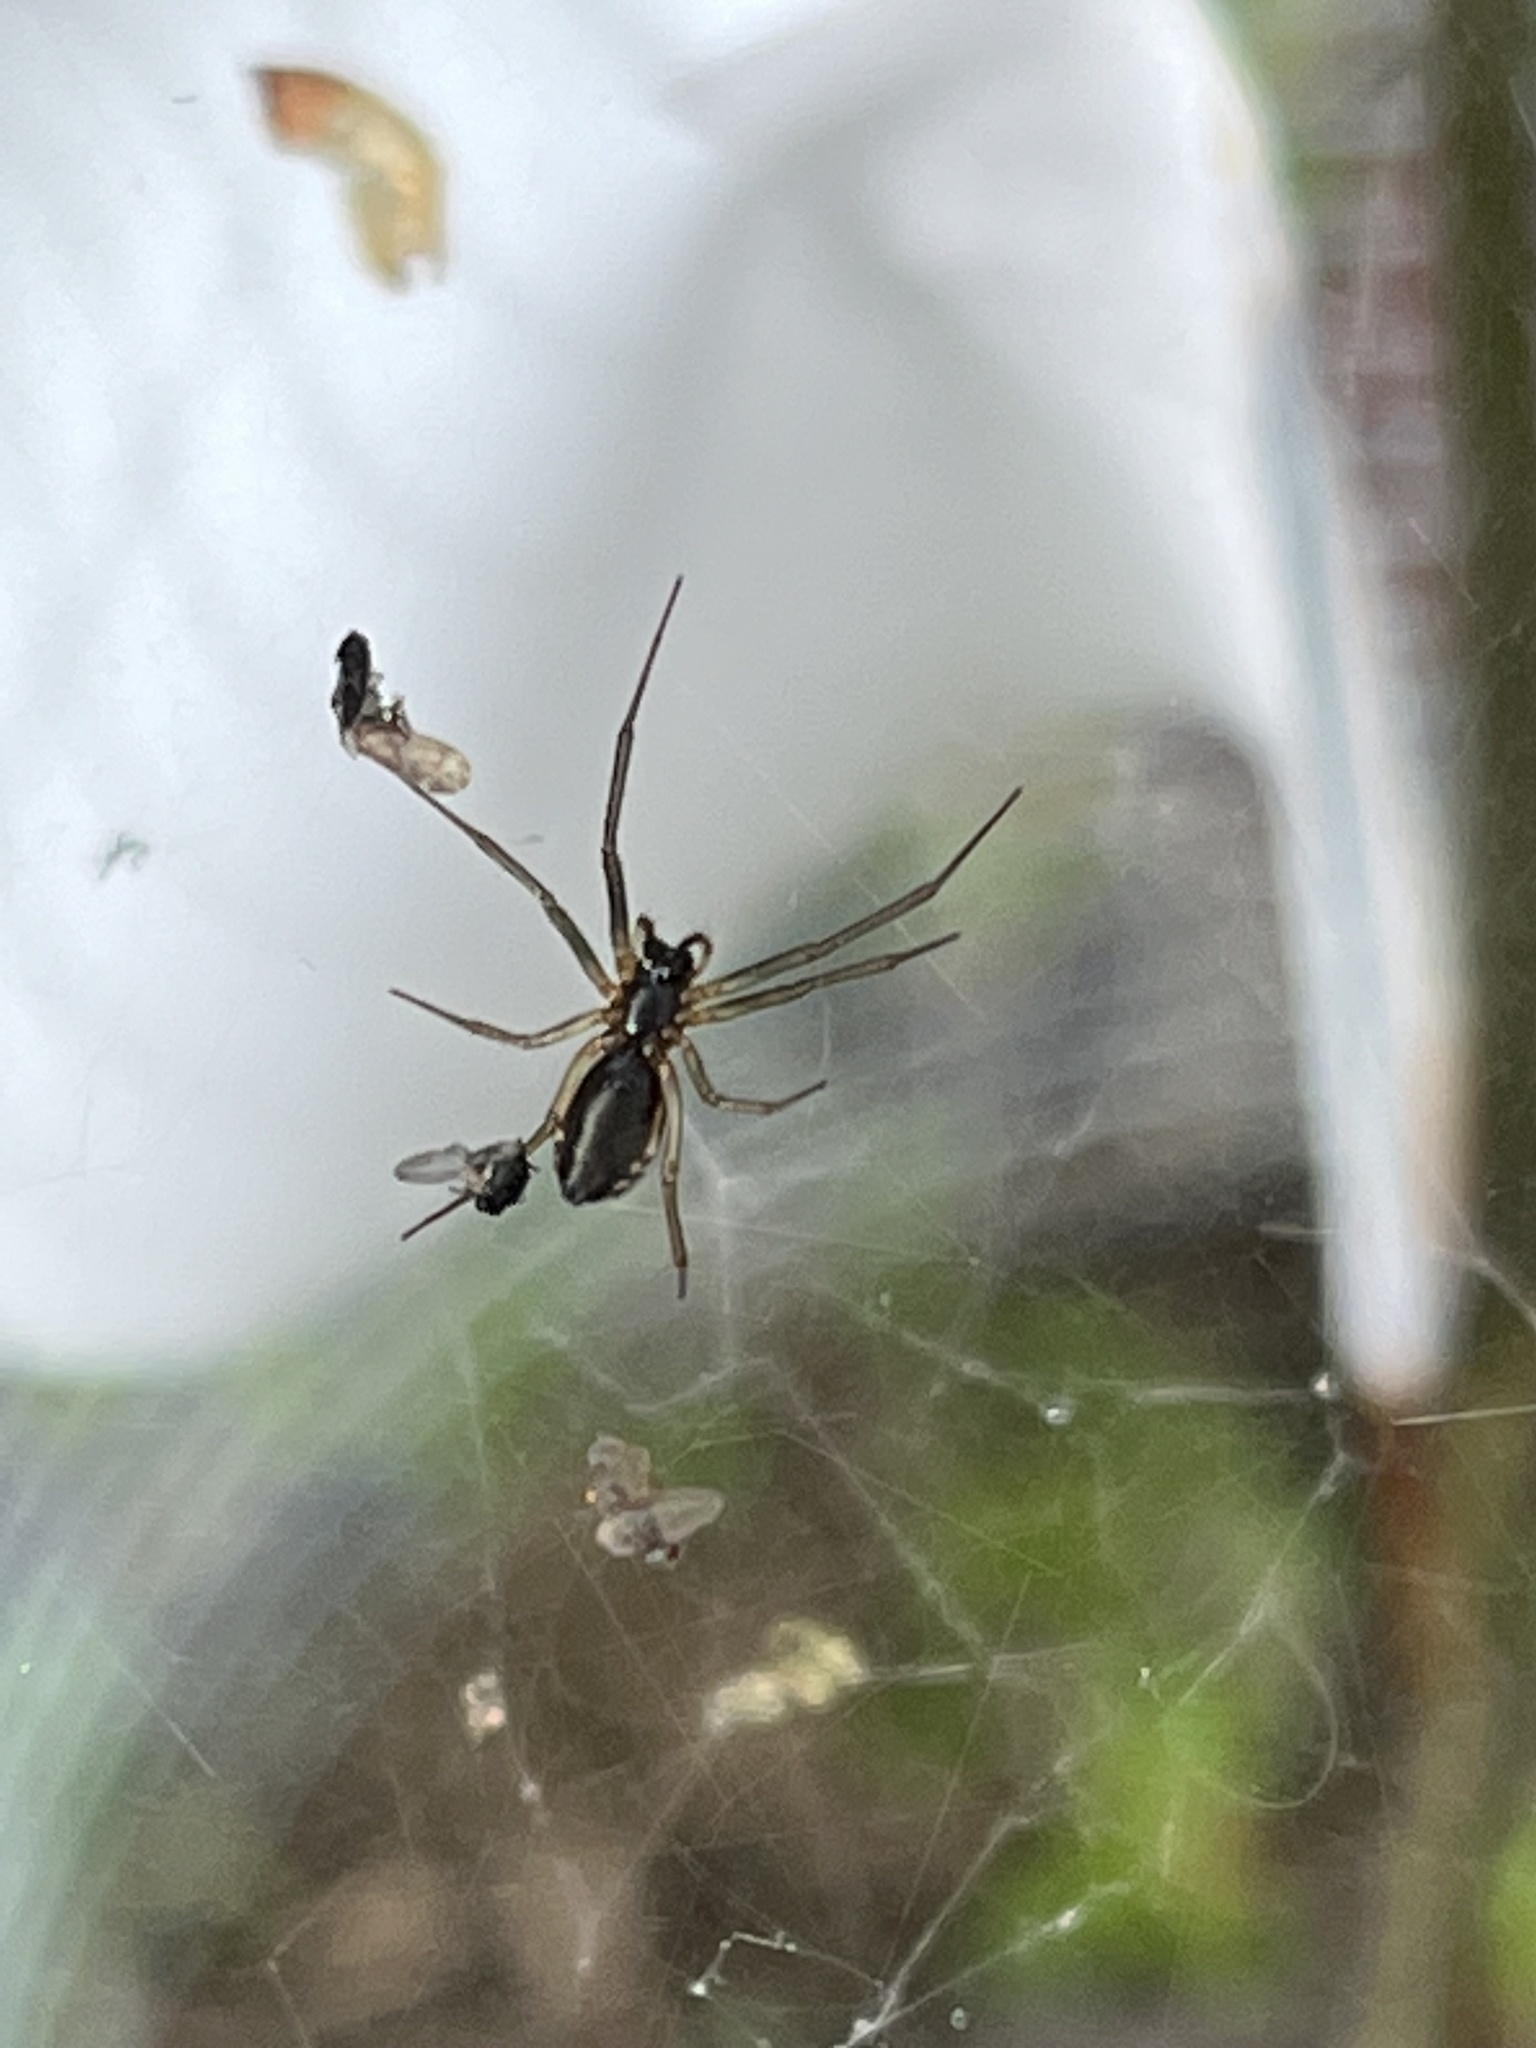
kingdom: Animalia
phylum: Arthropoda
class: Arachnida
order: Araneae
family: Linyphiidae
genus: Frontinella
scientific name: Frontinella pyramitela
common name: Bowl-and-doily spider
